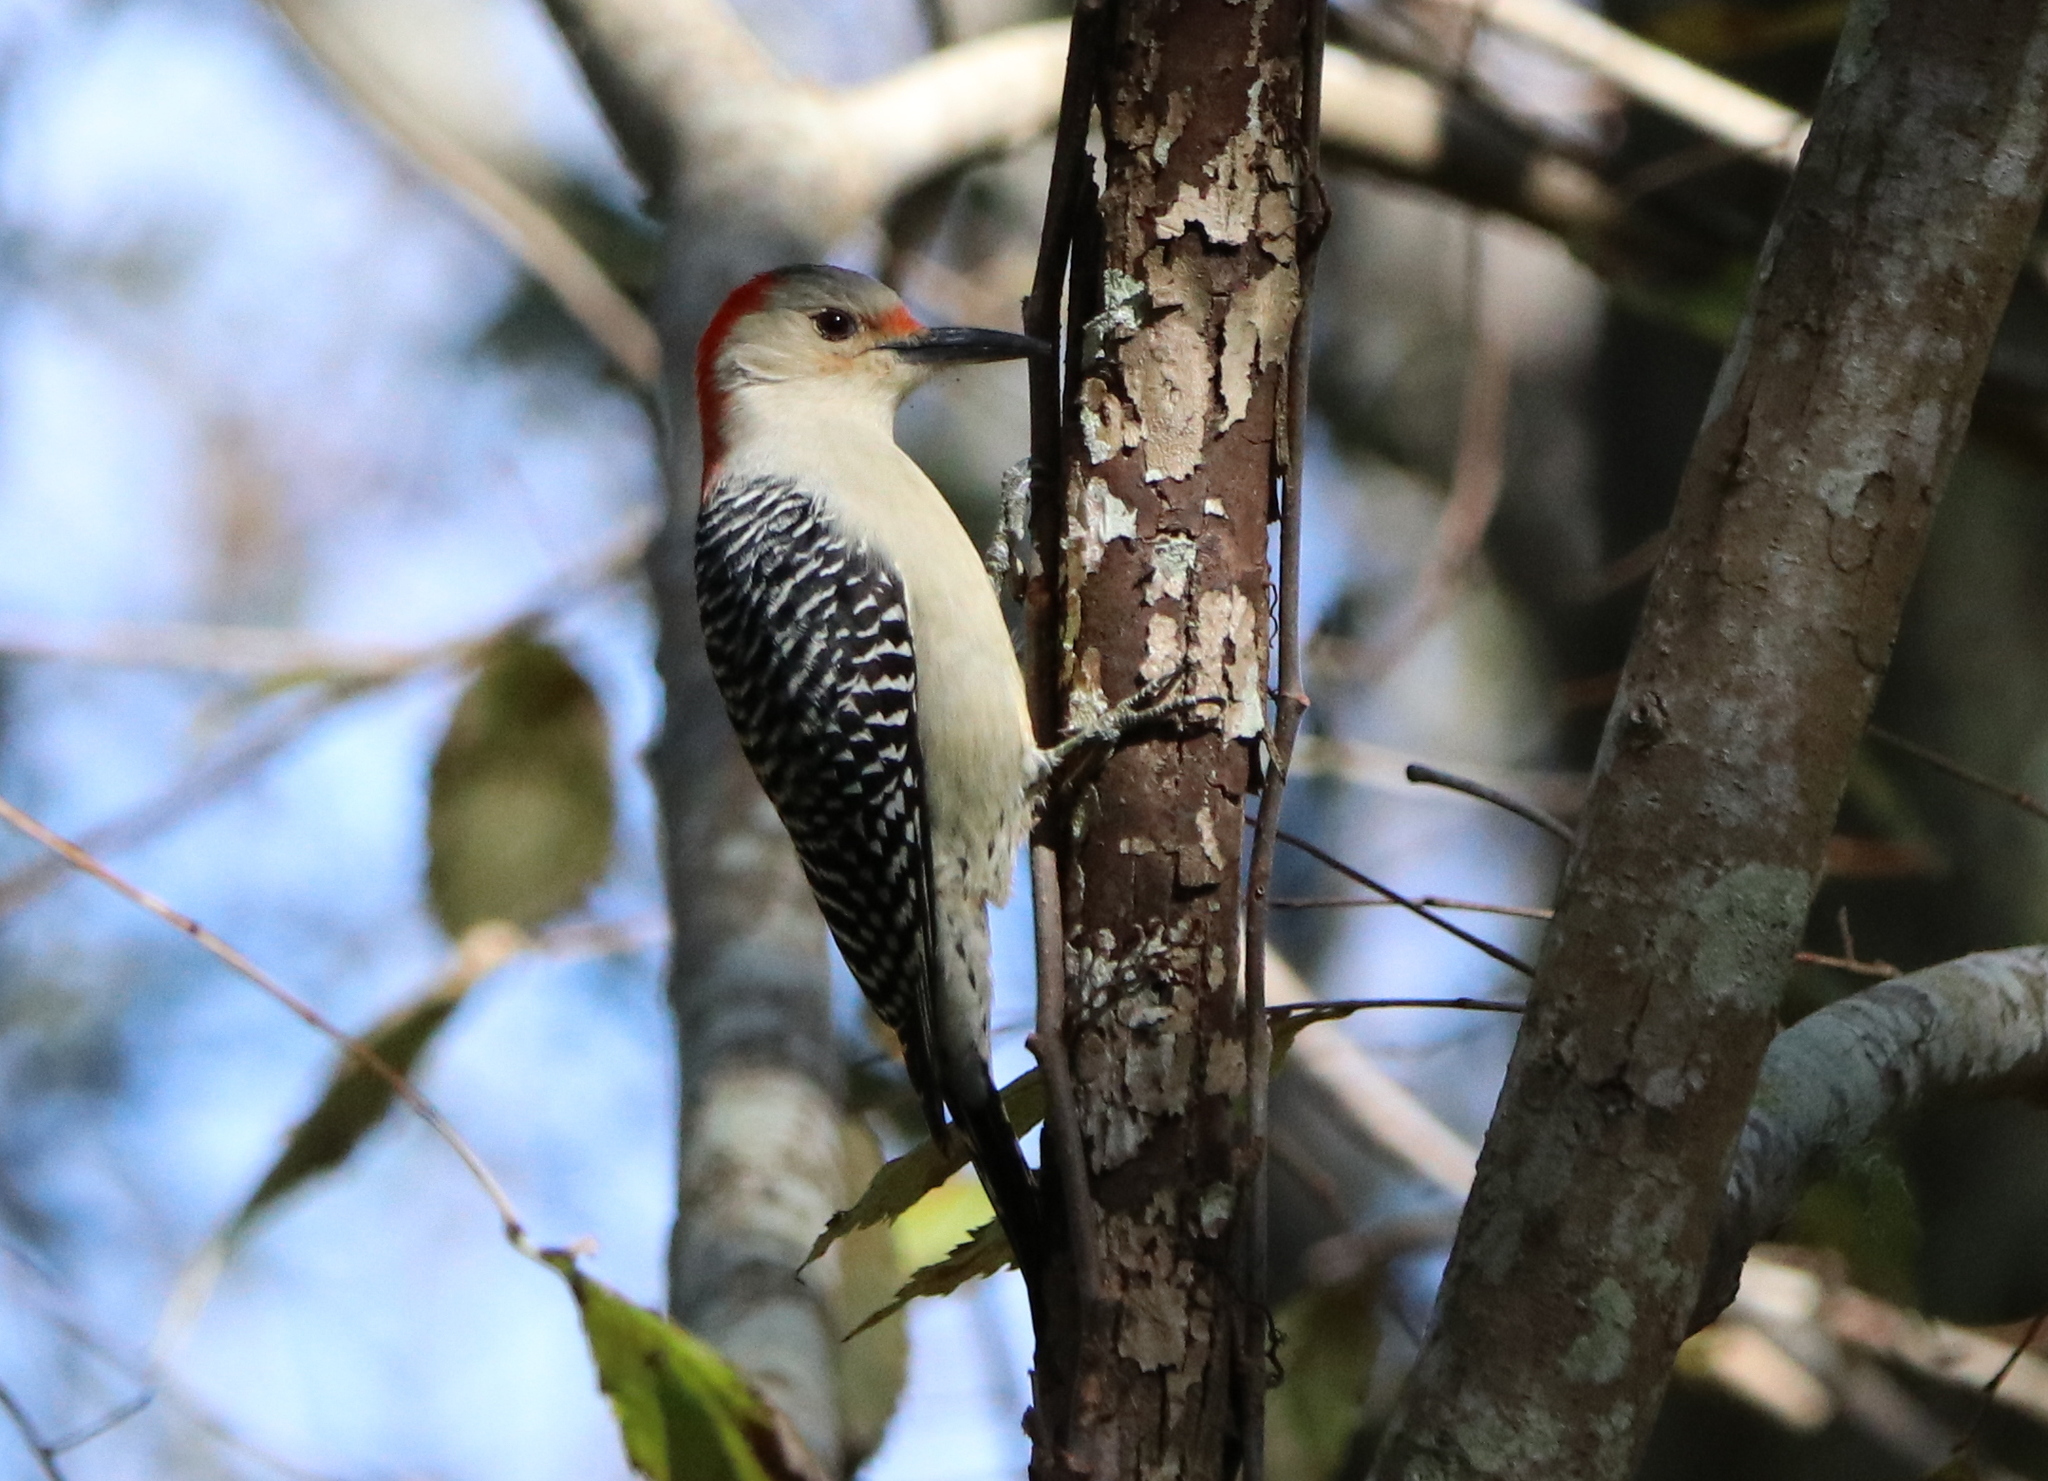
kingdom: Animalia
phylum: Chordata
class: Aves
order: Piciformes
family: Picidae
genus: Melanerpes
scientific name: Melanerpes carolinus
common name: Red-bellied woodpecker
